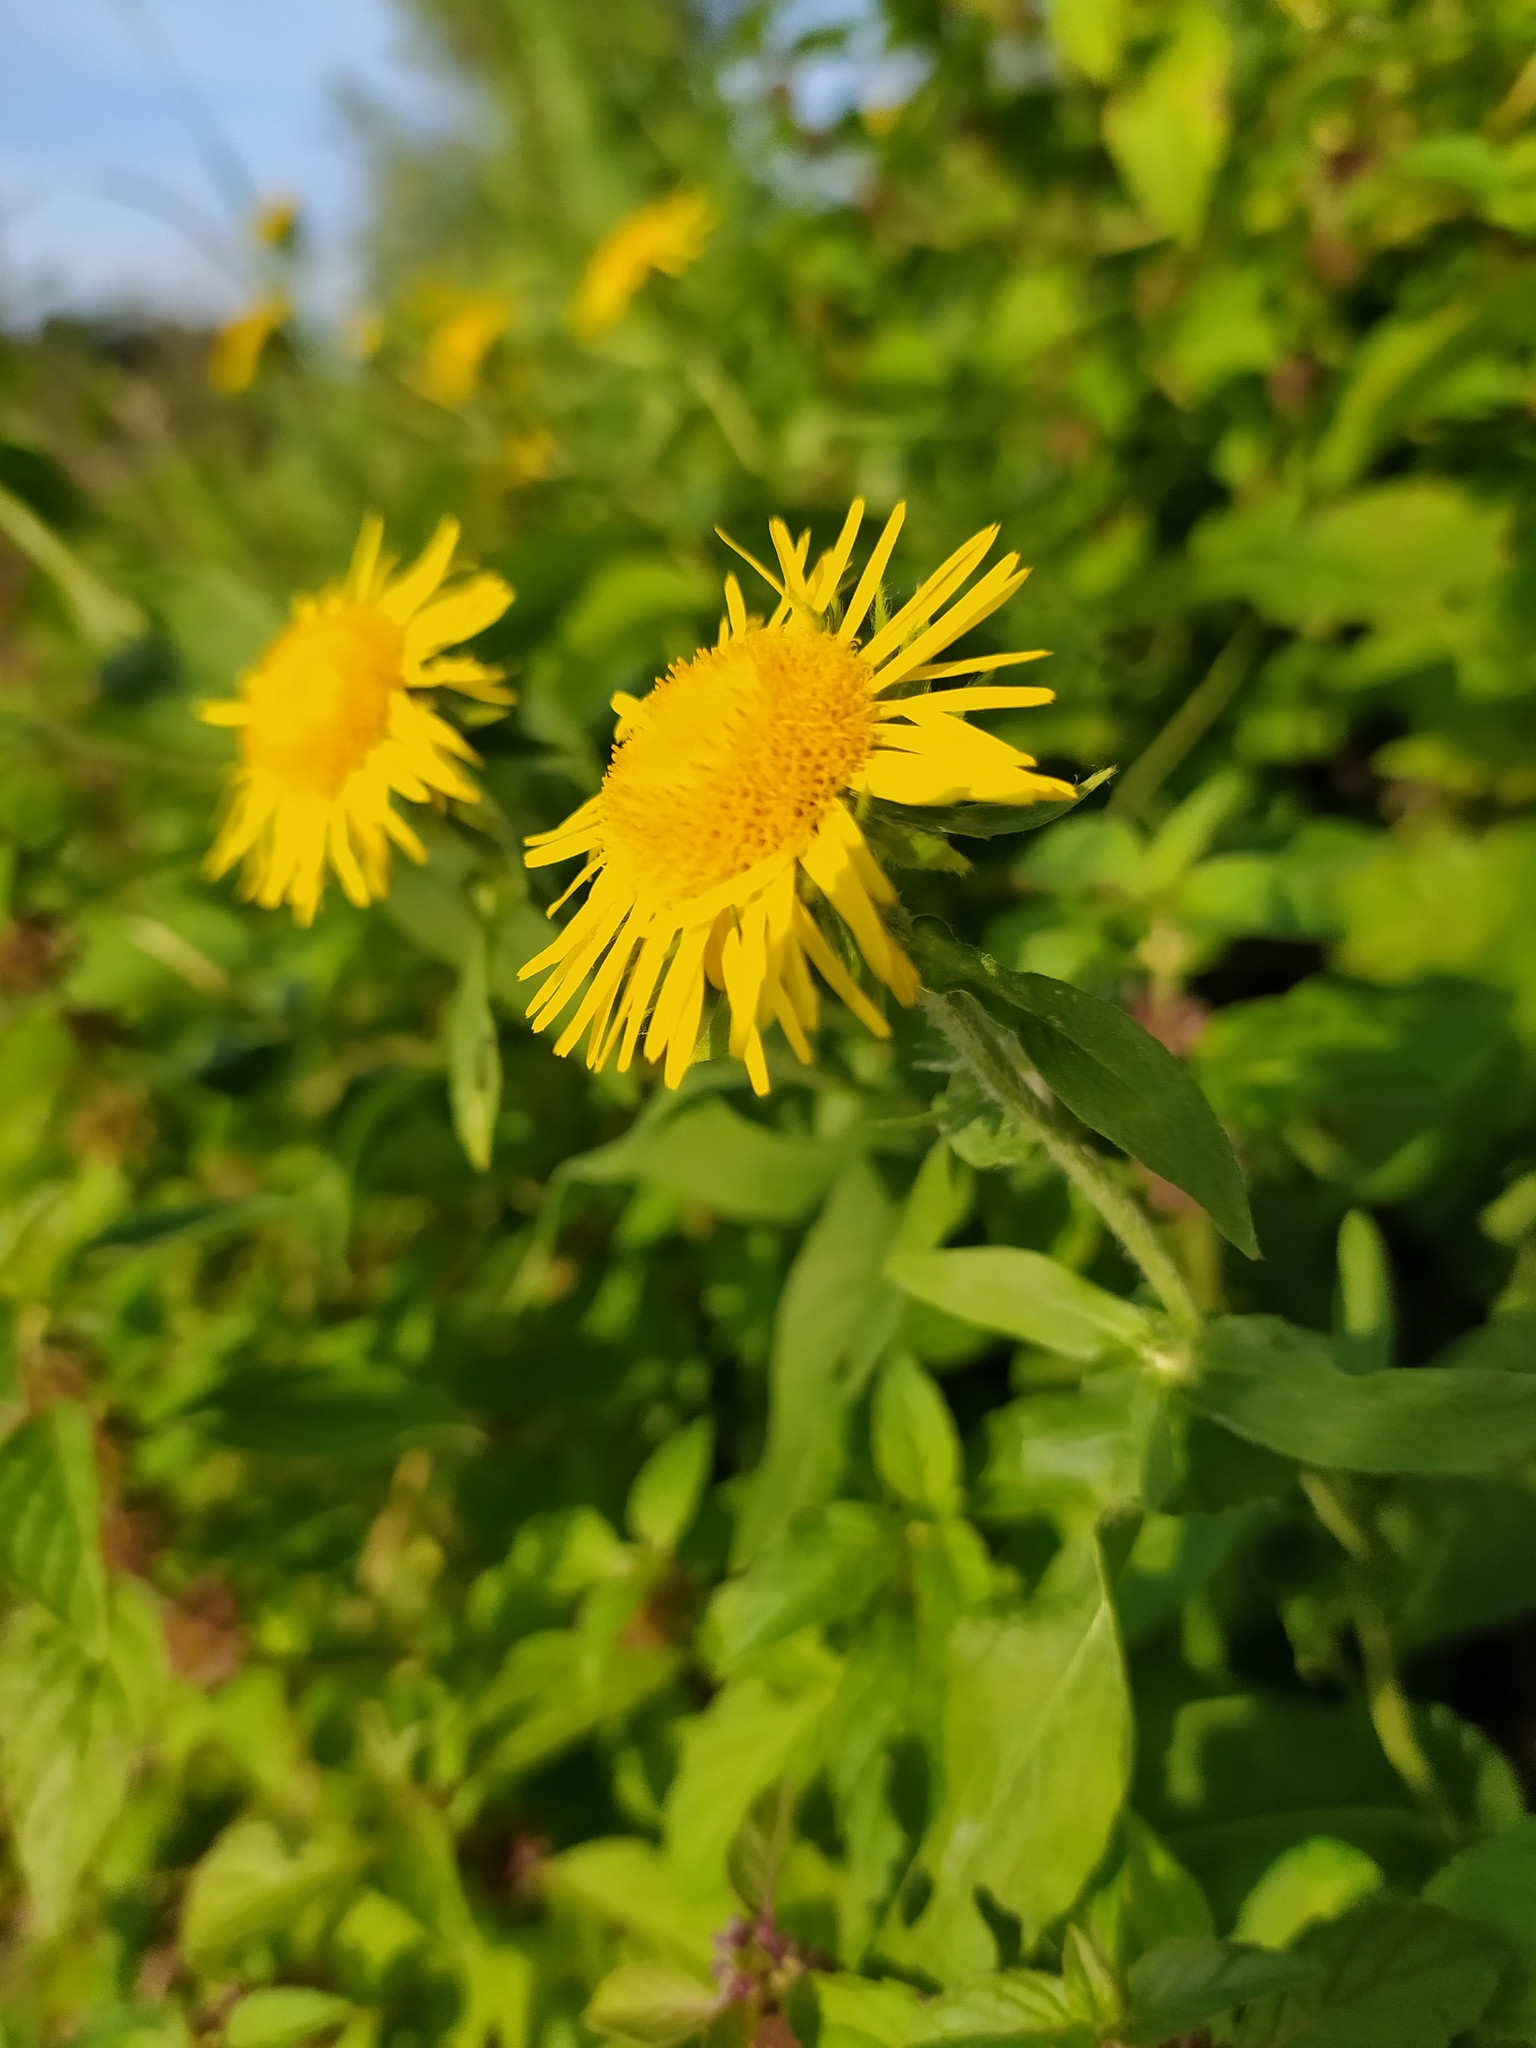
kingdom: Plantae
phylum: Tracheophyta
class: Magnoliopsida
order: Asterales
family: Asteraceae
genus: Pentanema
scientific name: Pentanema britannicum
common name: British elecampane
